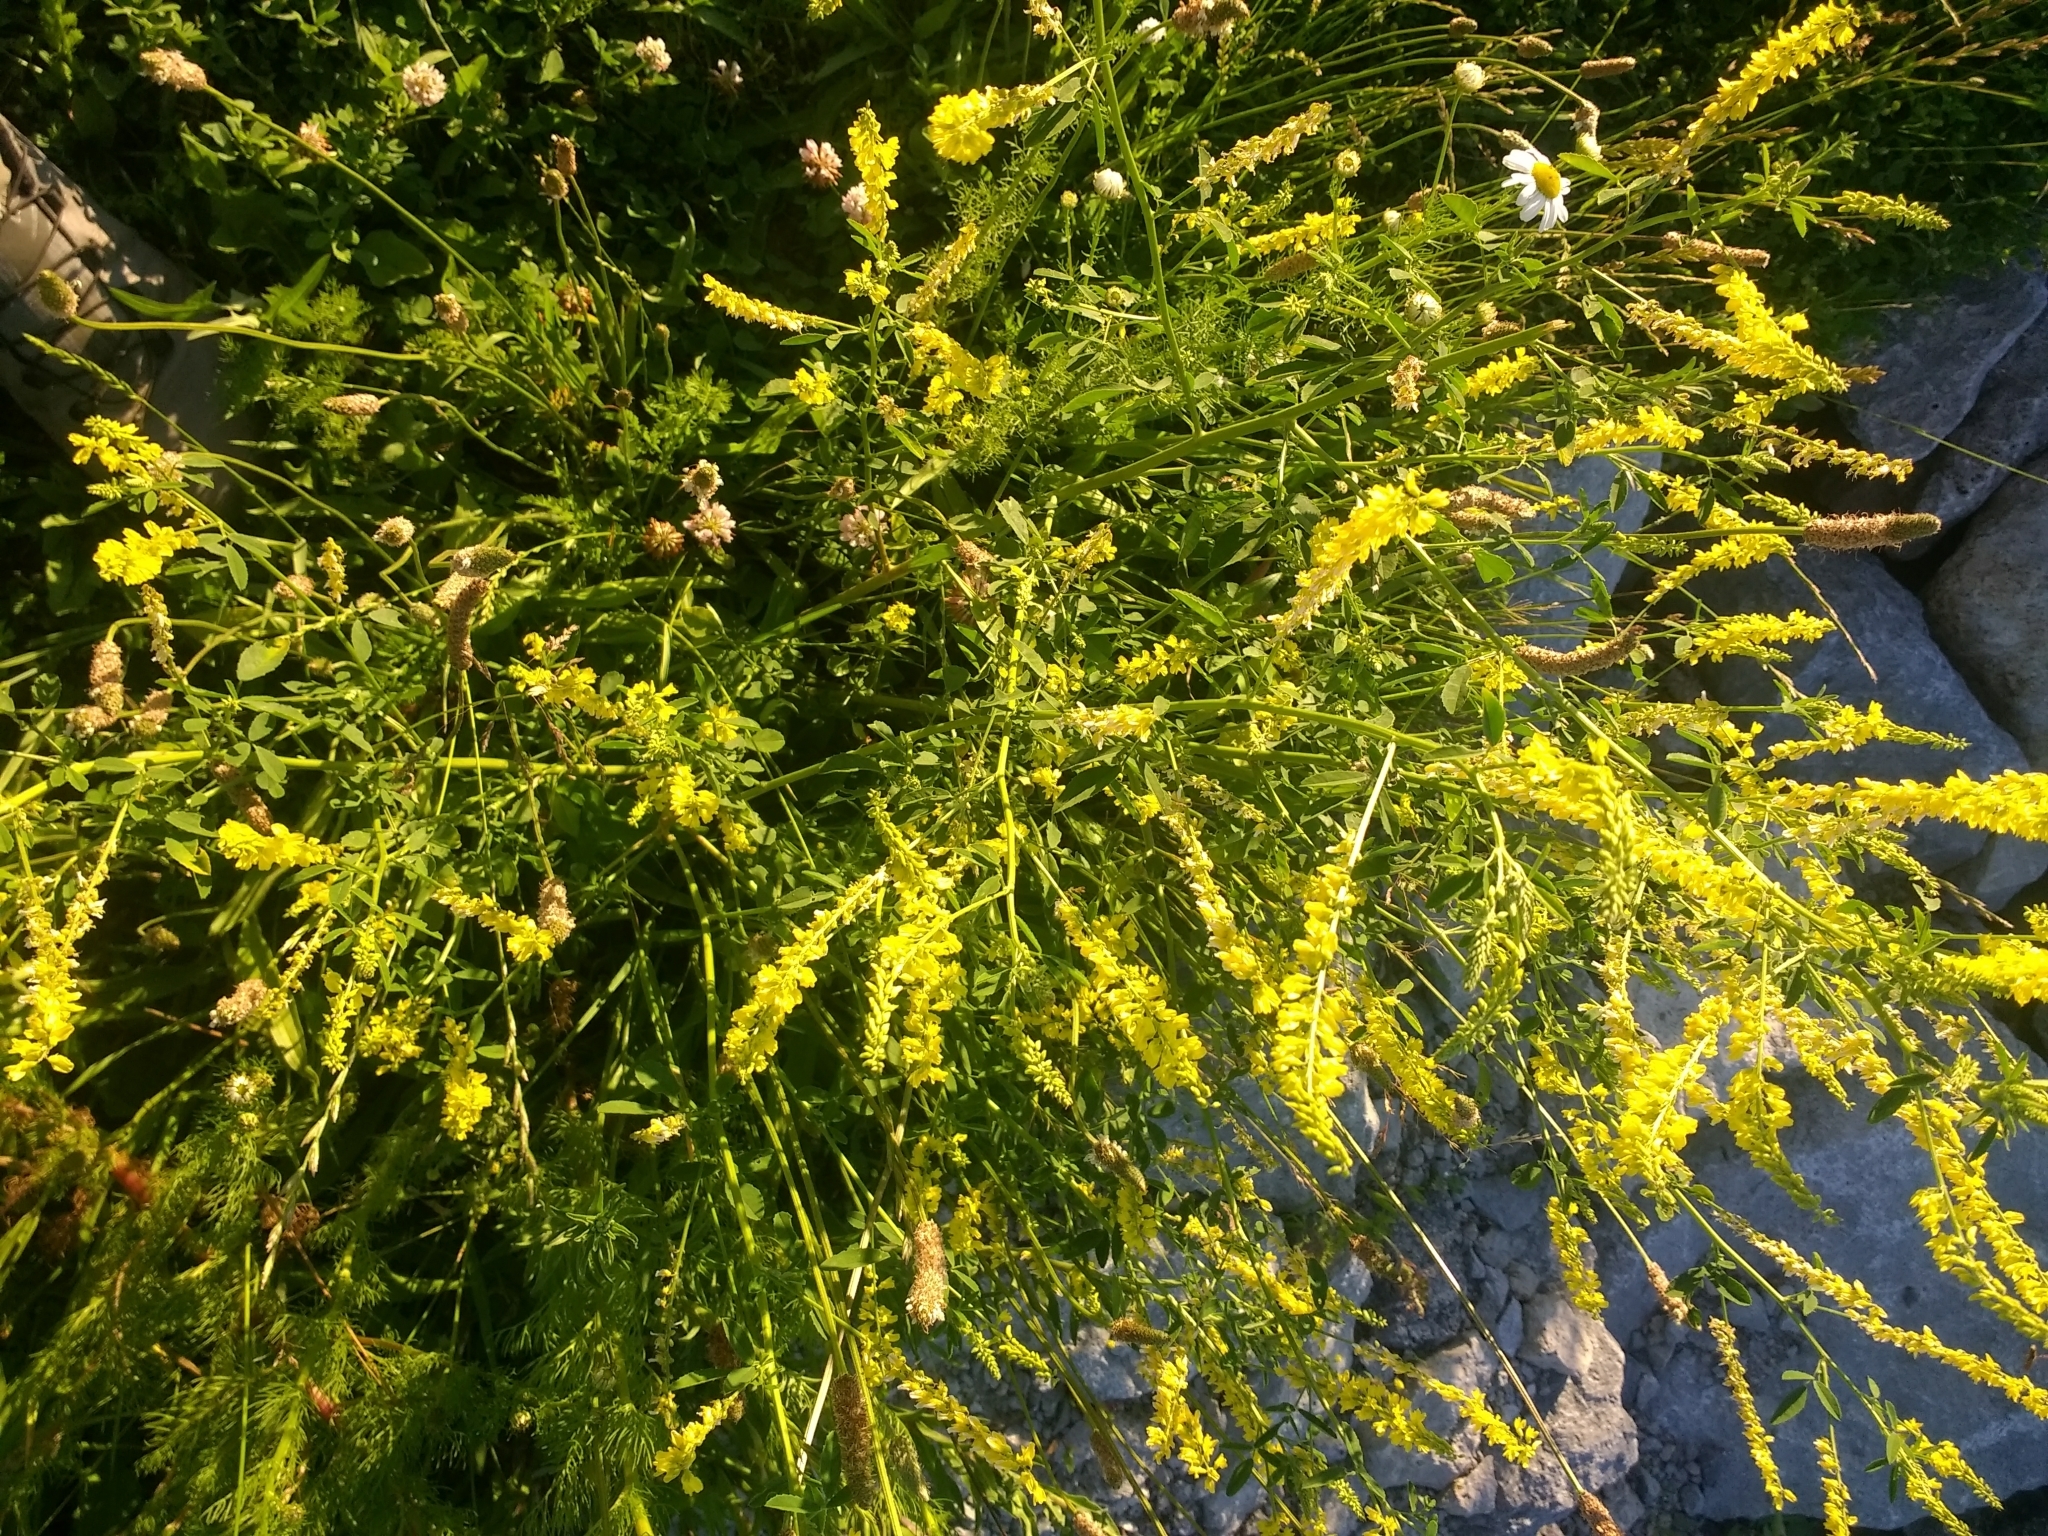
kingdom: Plantae
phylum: Tracheophyta
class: Magnoliopsida
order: Fabales
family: Fabaceae
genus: Melilotus
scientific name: Melilotus officinalis
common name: Sweetclover
